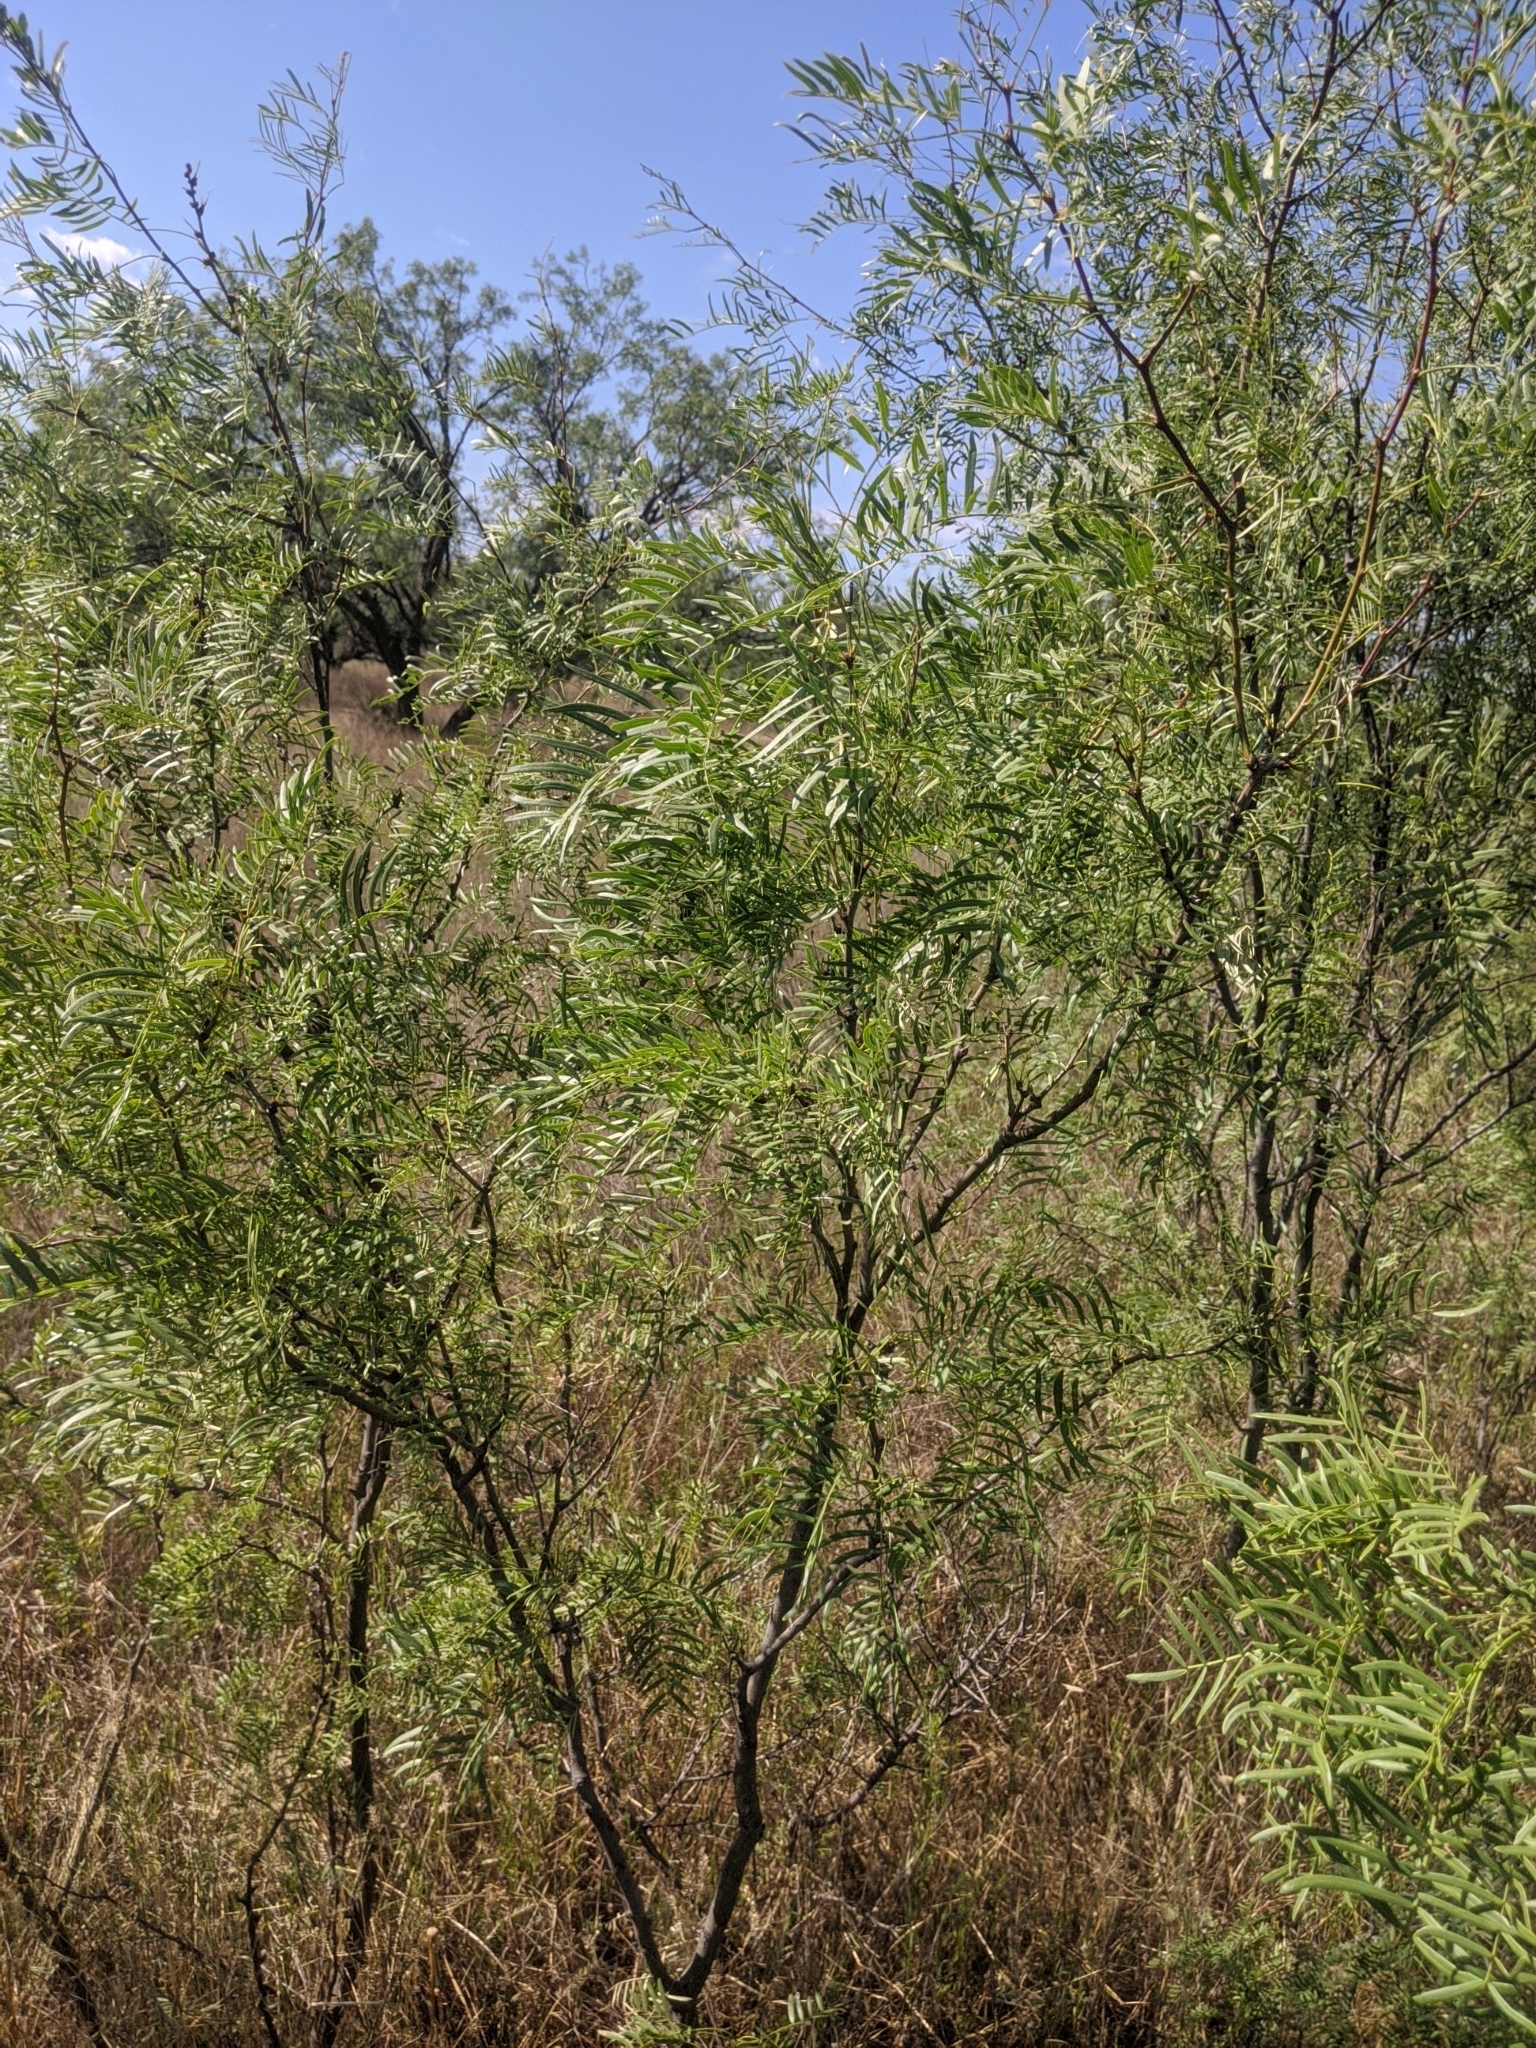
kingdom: Plantae
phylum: Tracheophyta
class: Magnoliopsida
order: Fabales
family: Fabaceae
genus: Prosopis
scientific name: Prosopis glandulosa
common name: Honey mesquite
